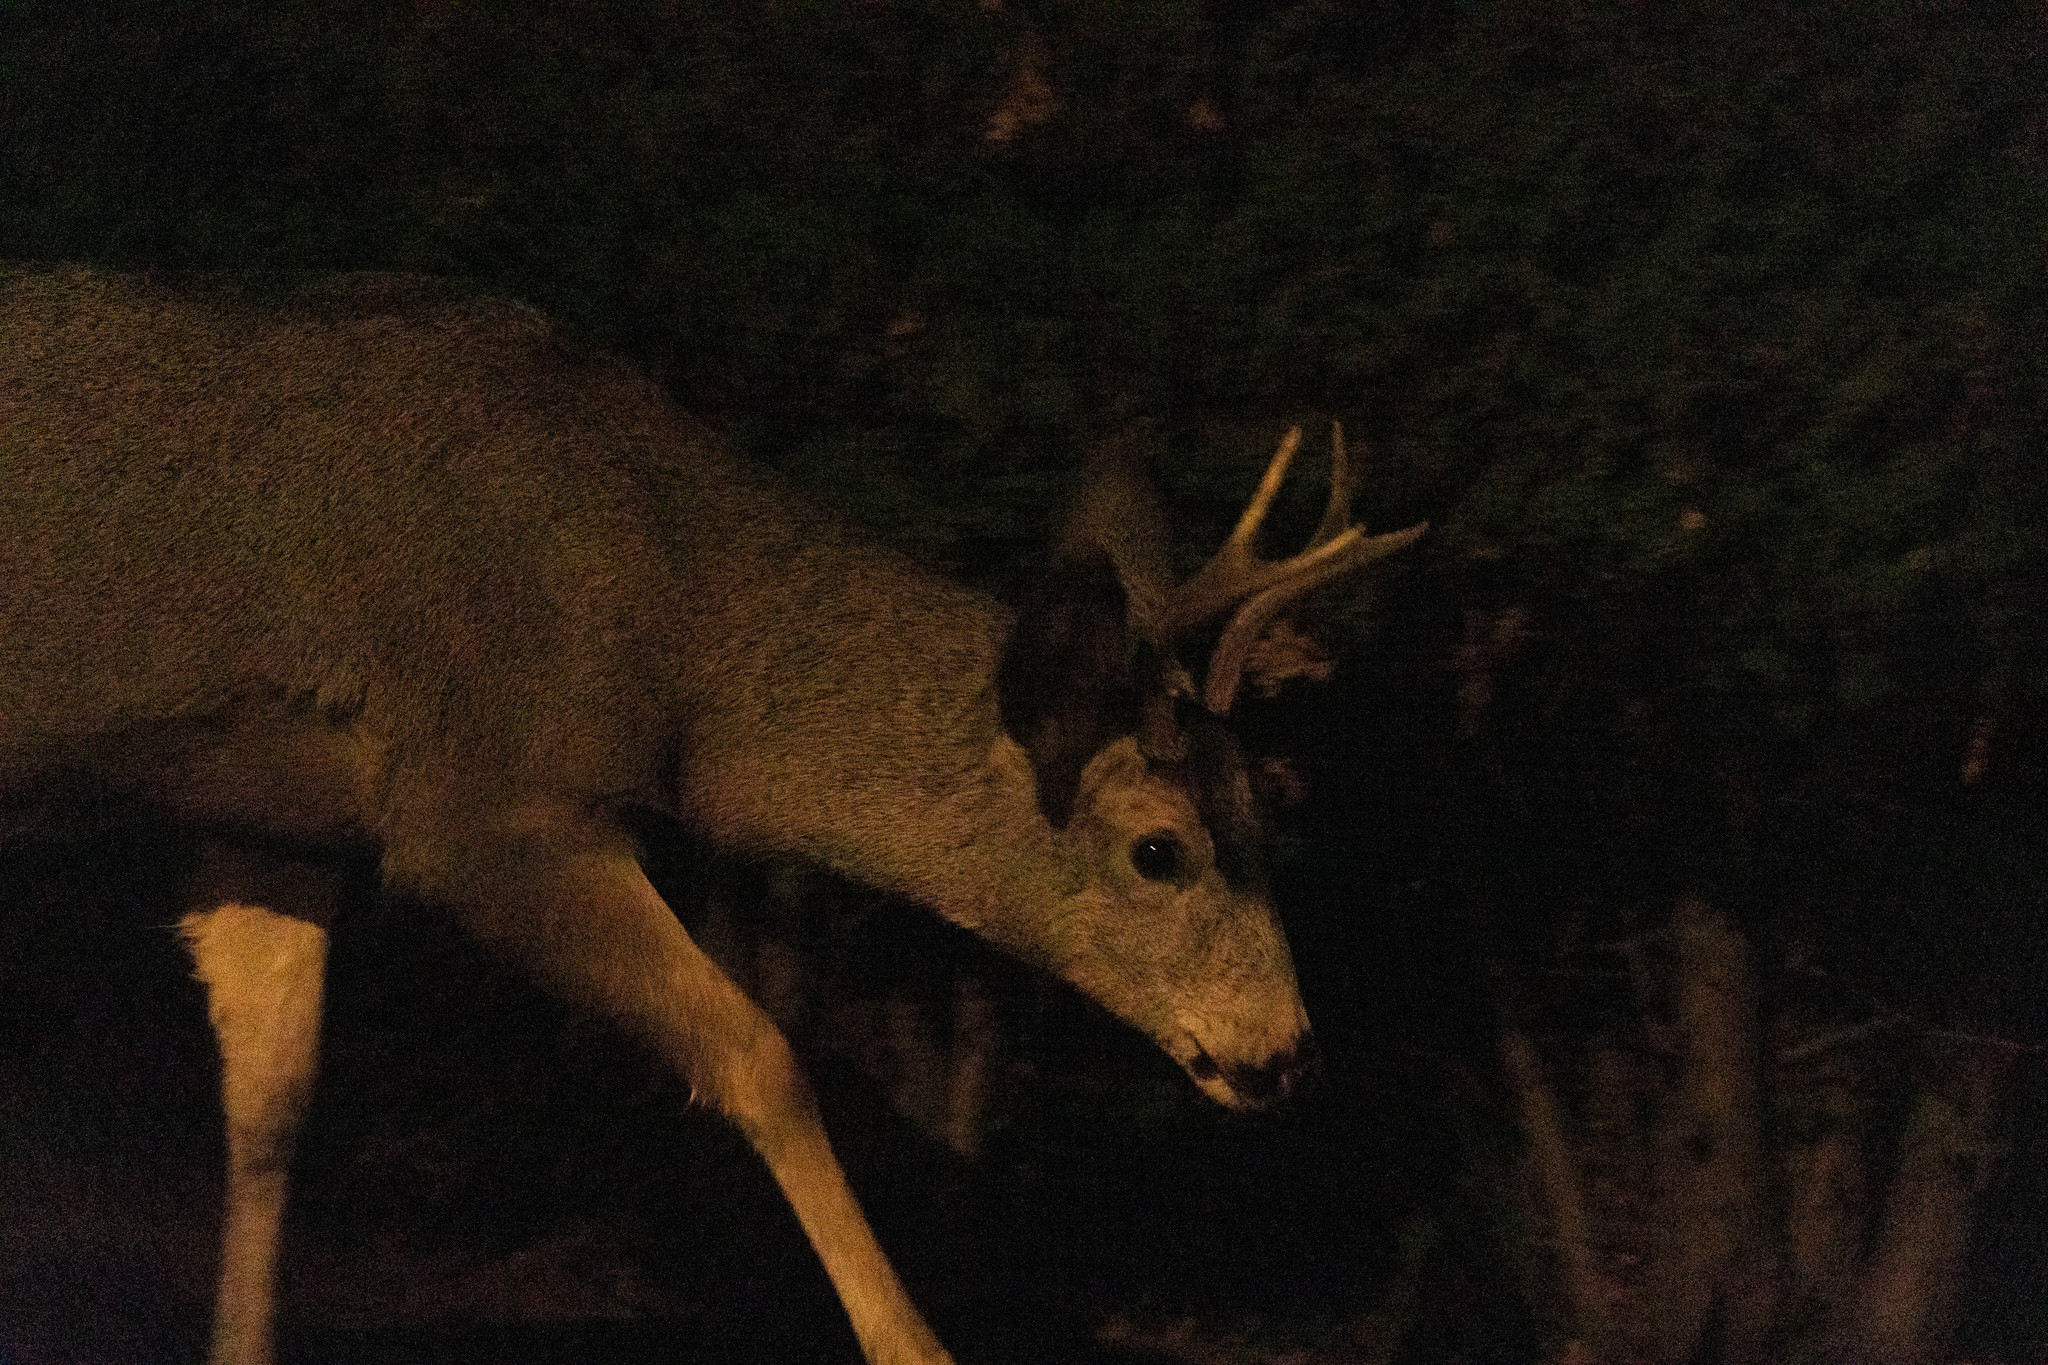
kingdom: Animalia
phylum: Chordata
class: Mammalia
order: Artiodactyla
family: Cervidae
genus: Odocoileus
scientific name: Odocoileus hemionus
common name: Mule deer
